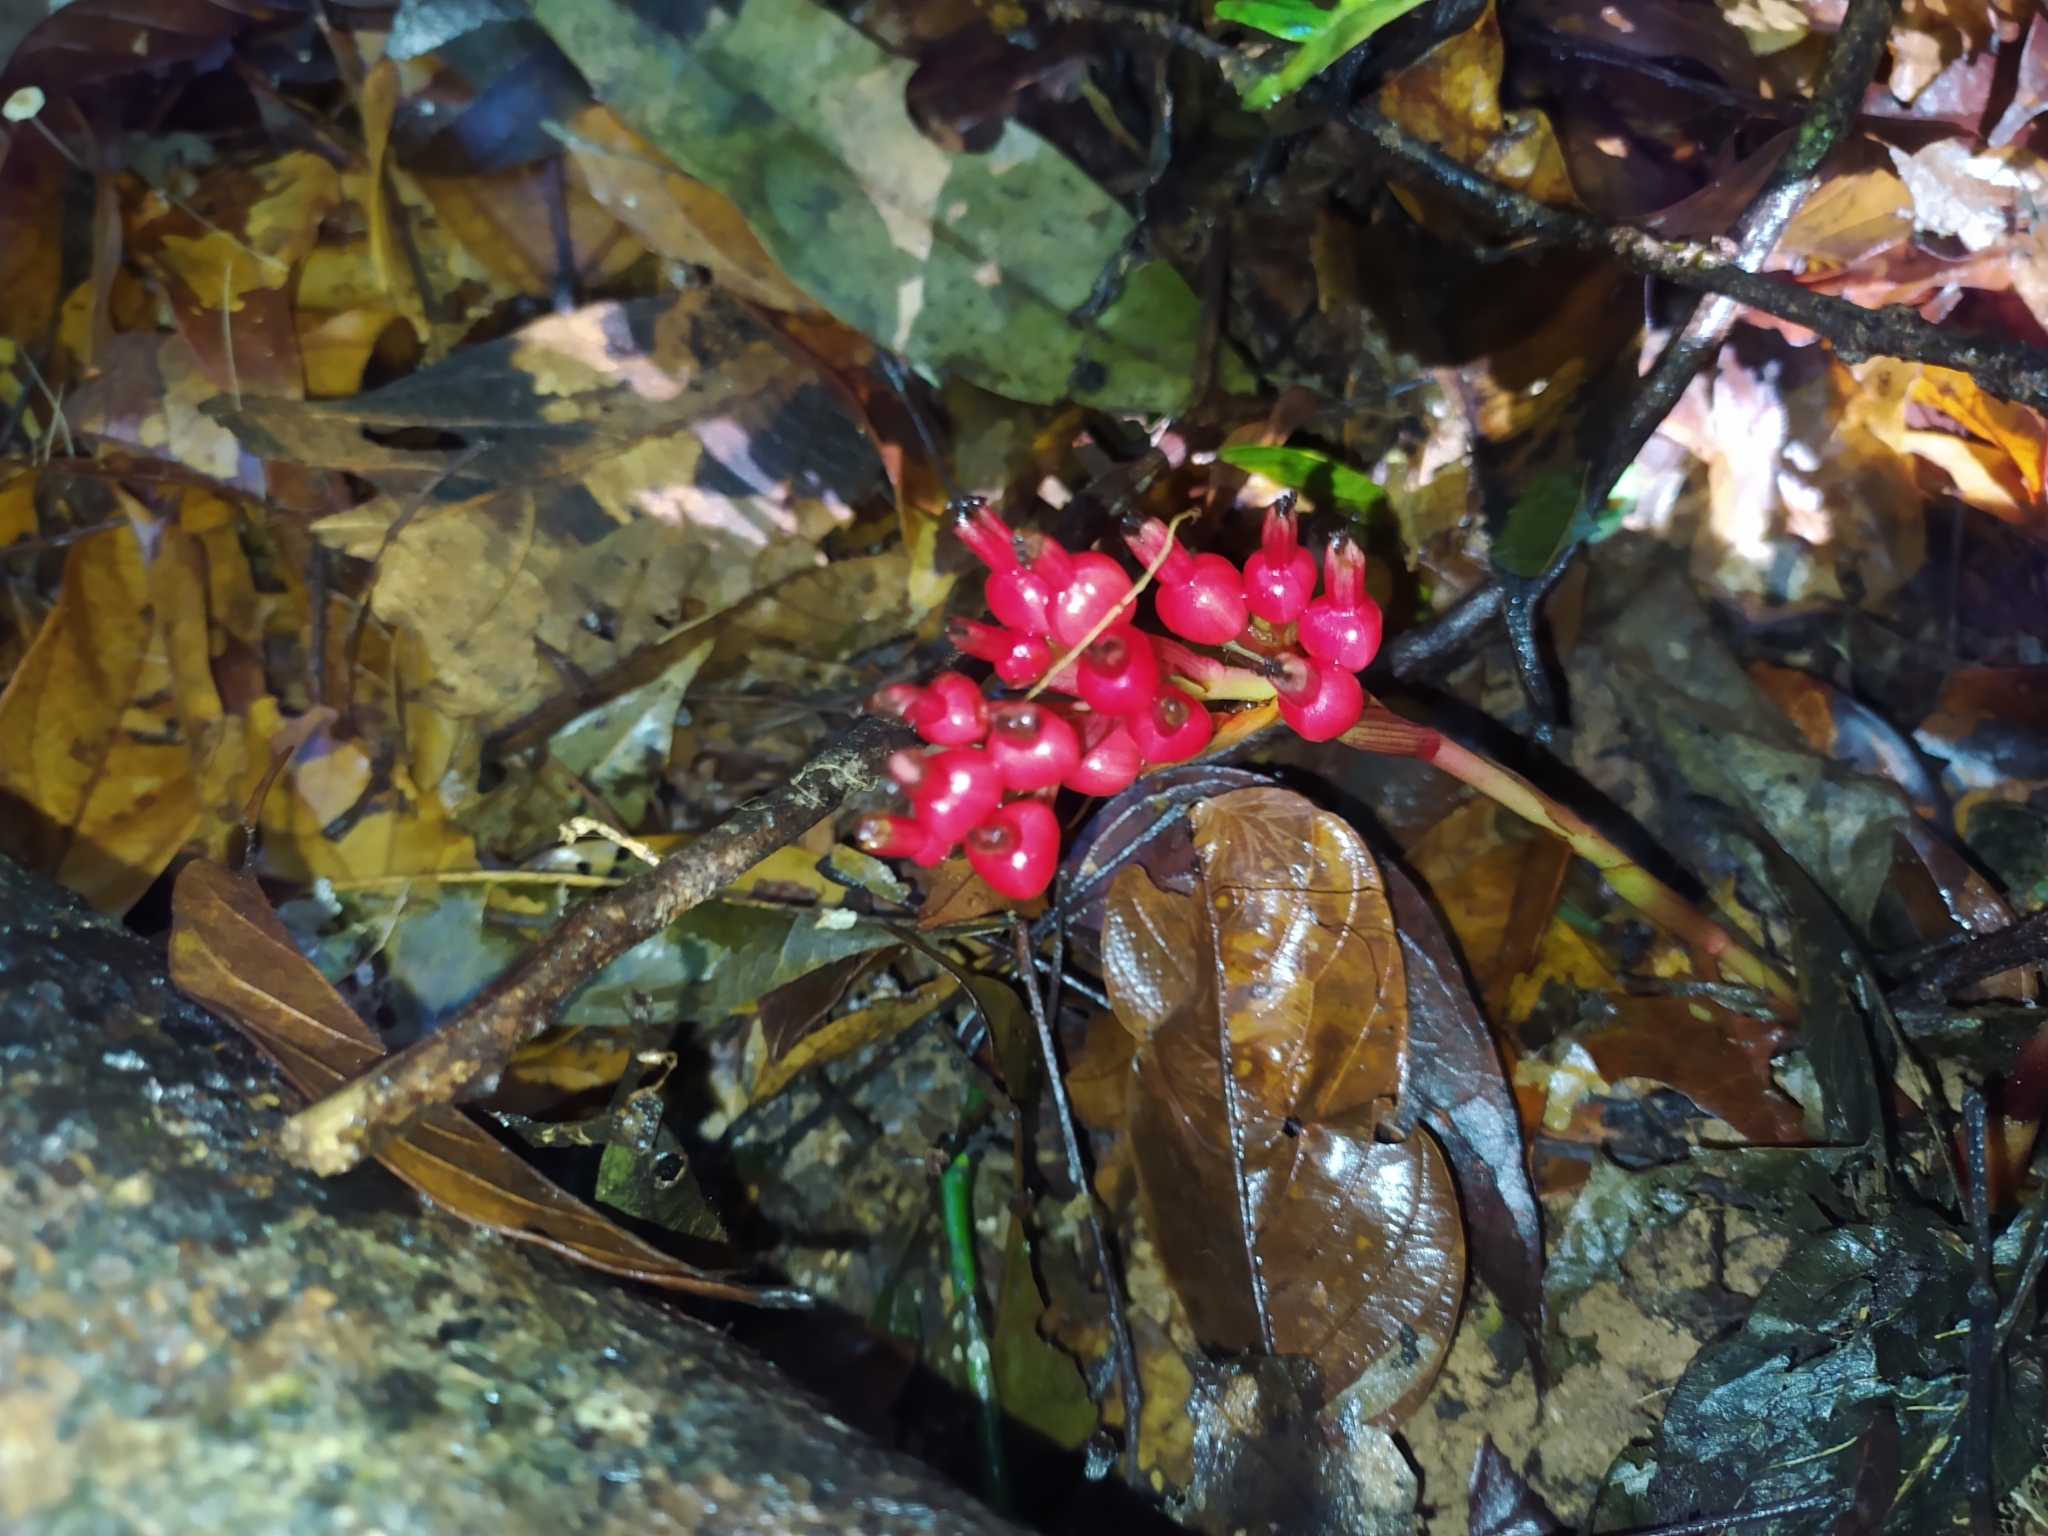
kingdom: Plantae
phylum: Tracheophyta
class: Liliopsida
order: Zingiberales
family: Zingiberaceae
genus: Renealmia
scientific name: Renealmia monosperma
